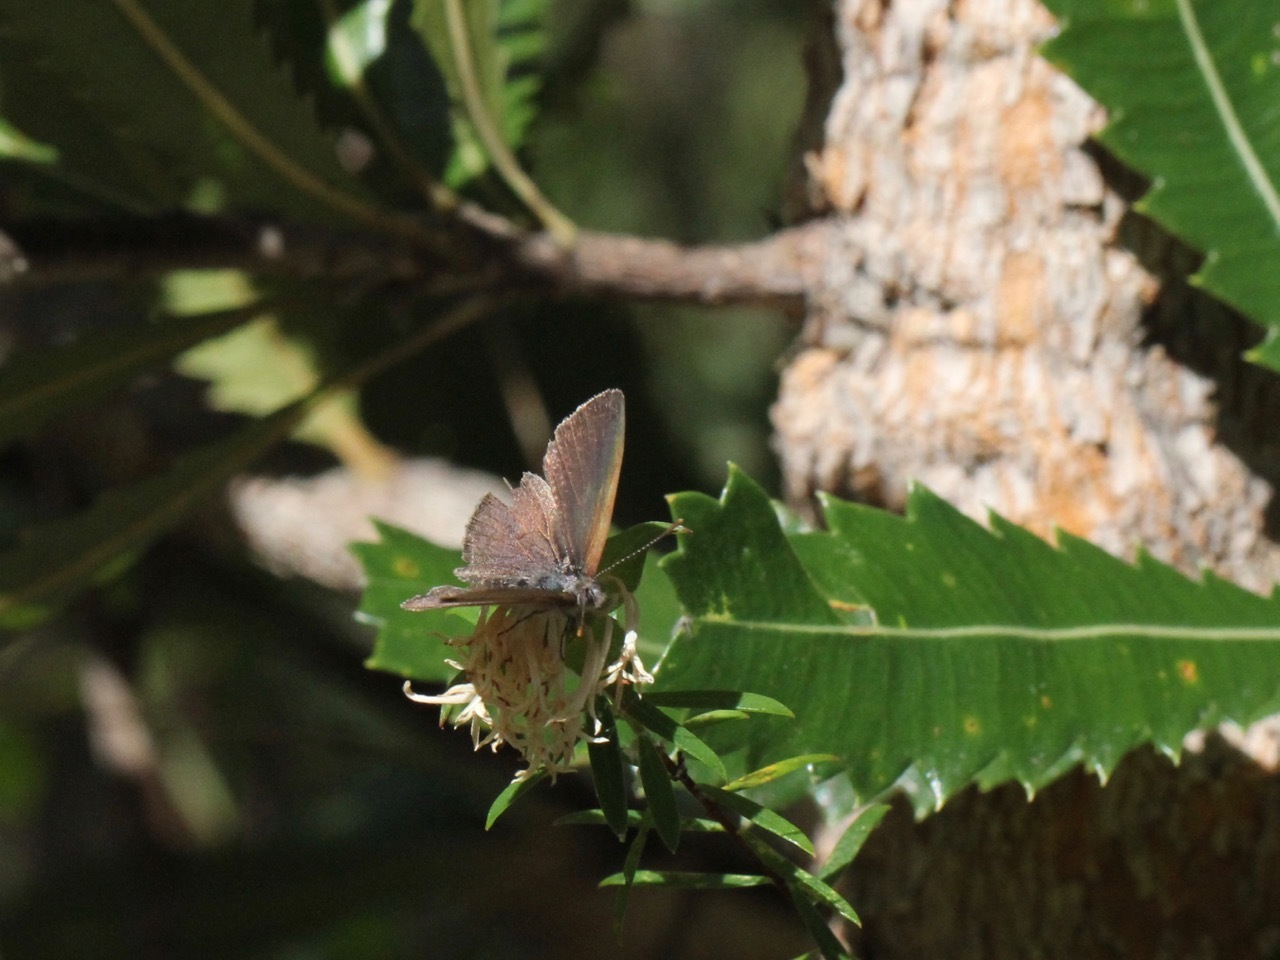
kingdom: Animalia
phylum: Arthropoda
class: Insecta
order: Lepidoptera
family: Lycaenidae
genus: Candalides
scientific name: Candalides
